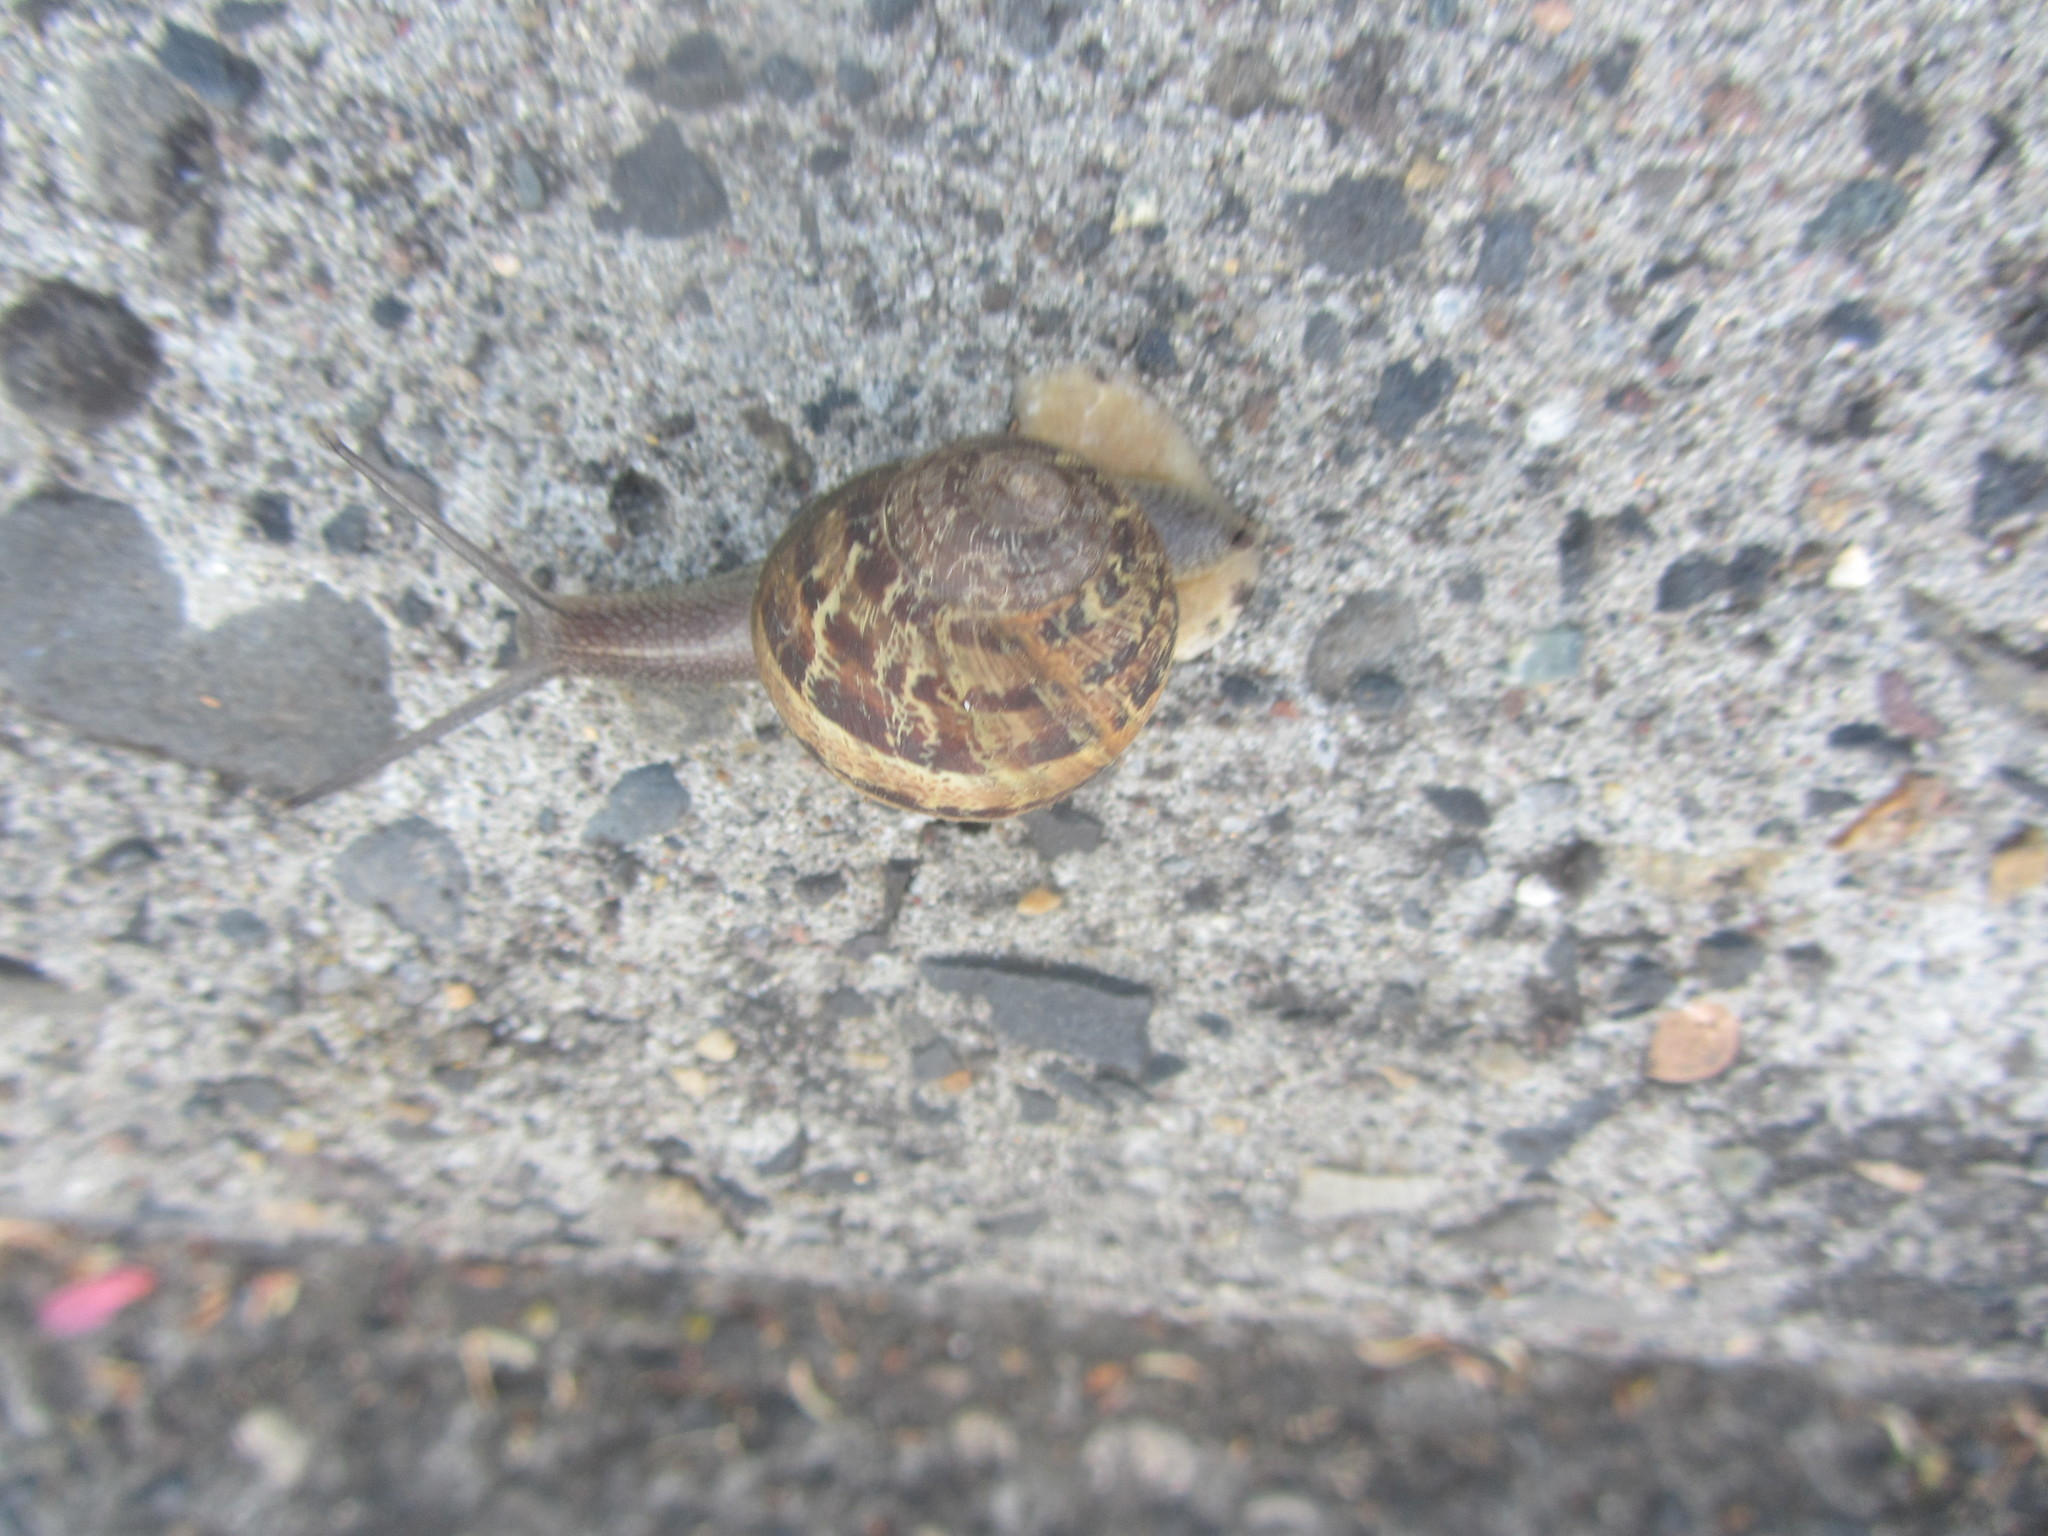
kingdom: Animalia
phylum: Mollusca
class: Gastropoda
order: Stylommatophora
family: Helicidae
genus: Cornu
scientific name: Cornu aspersum
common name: Brown garden snail
